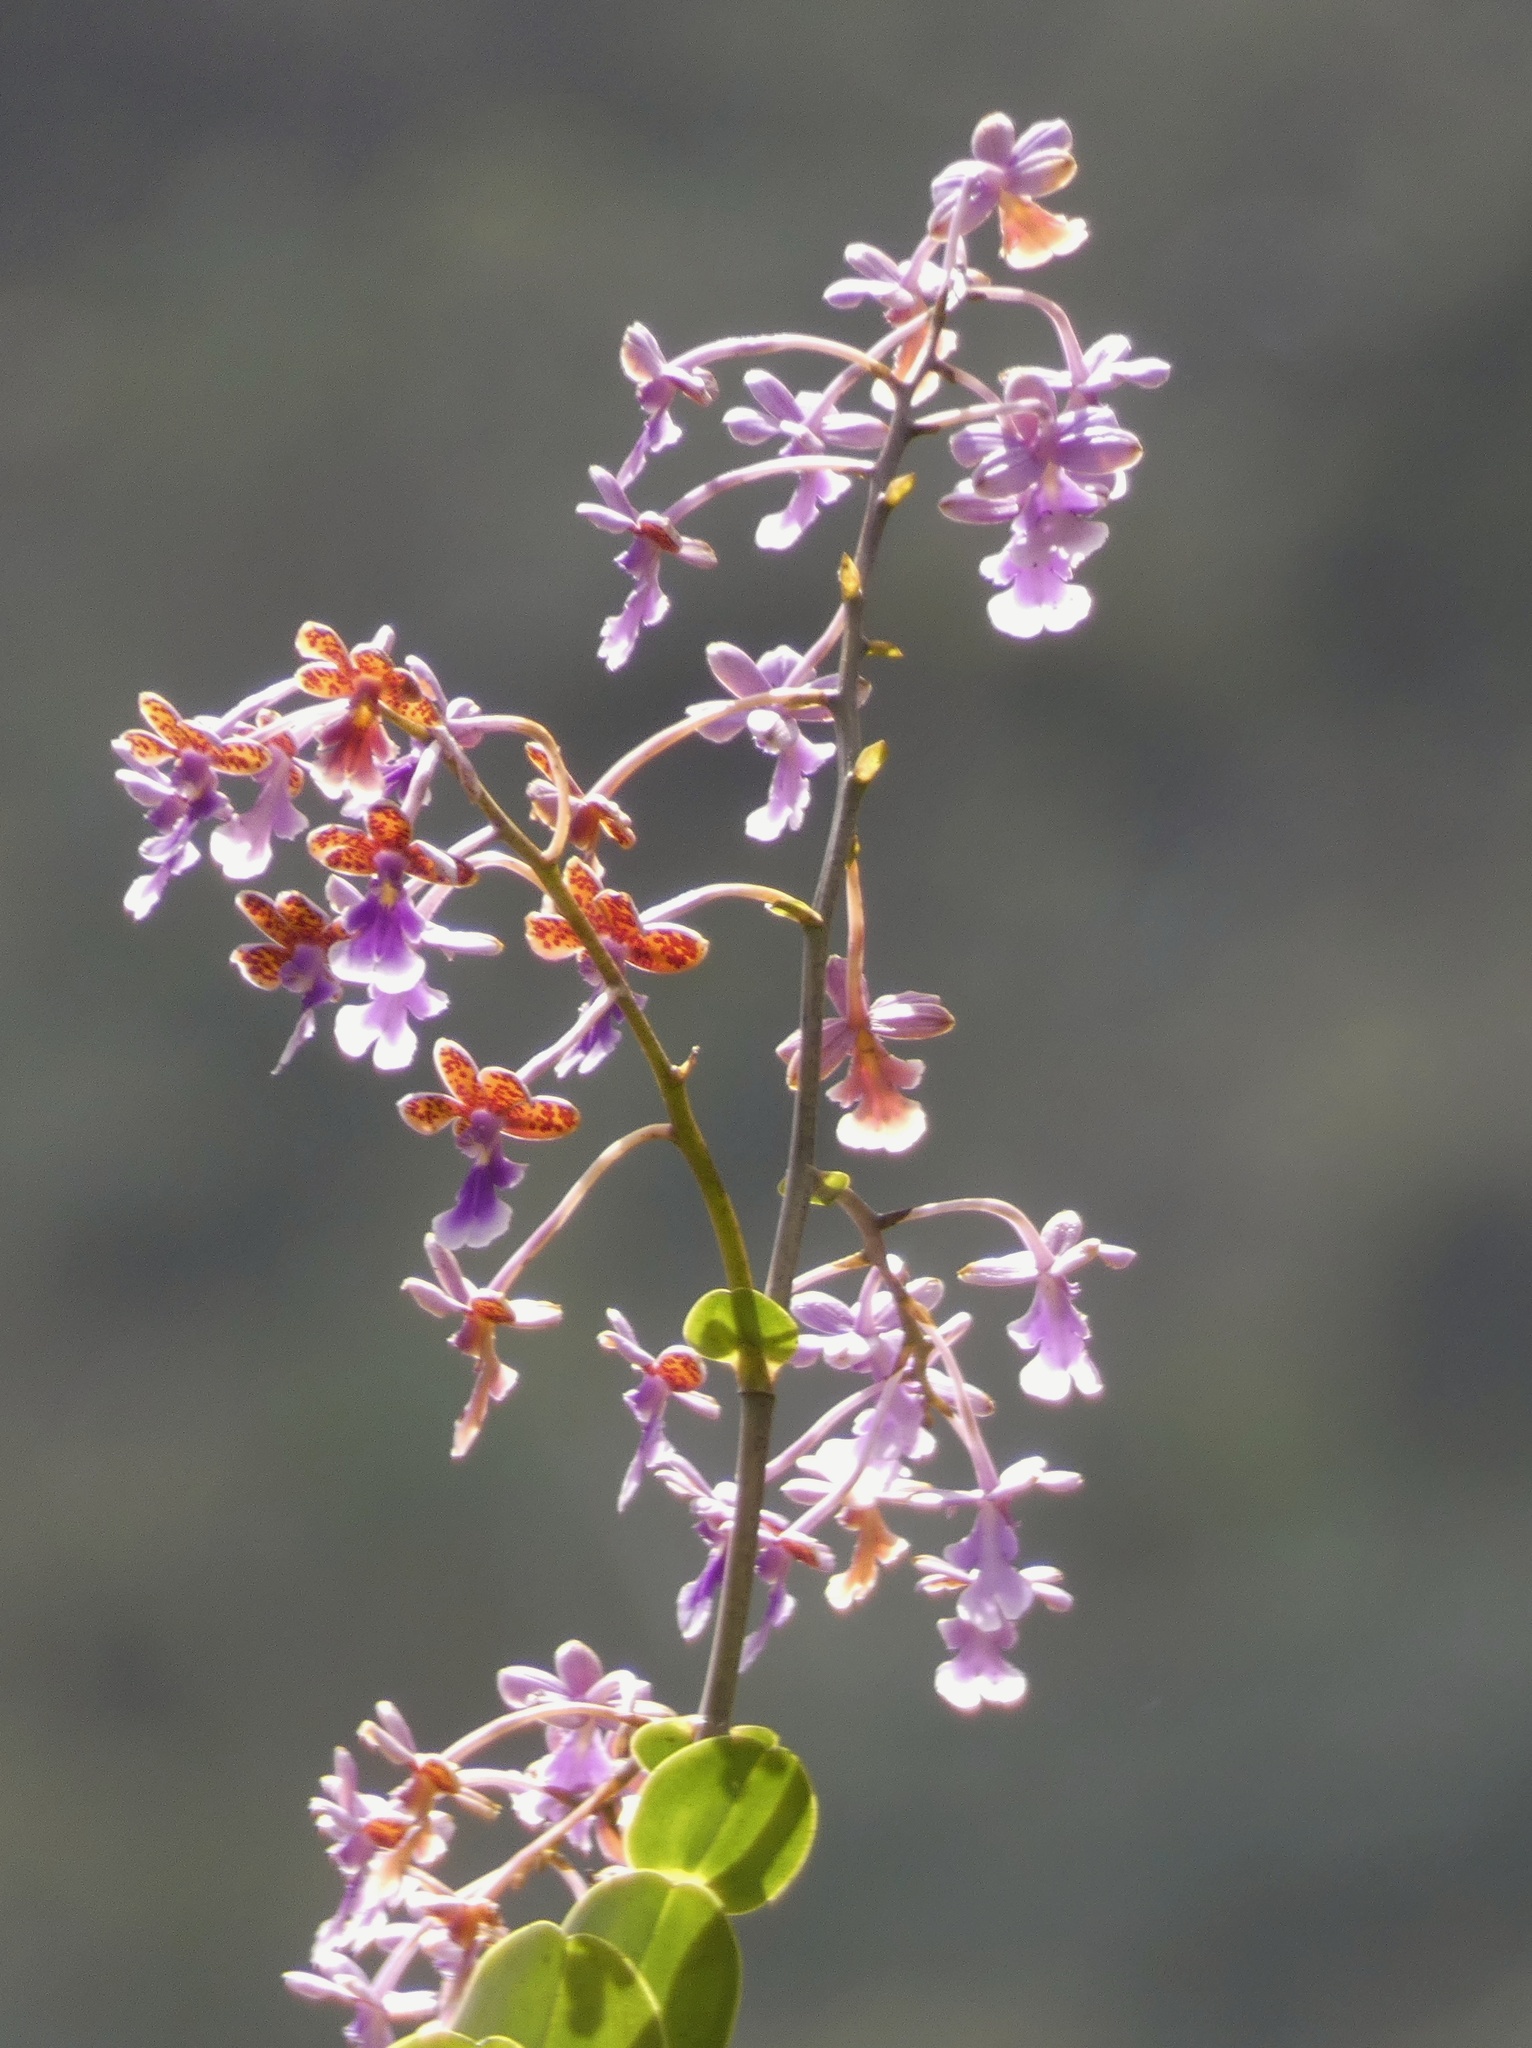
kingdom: Plantae
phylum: Tracheophyta
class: Liliopsida
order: Asparagales
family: Orchidaceae
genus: Epidendrum
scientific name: Epidendrum pseudoschumannianum
